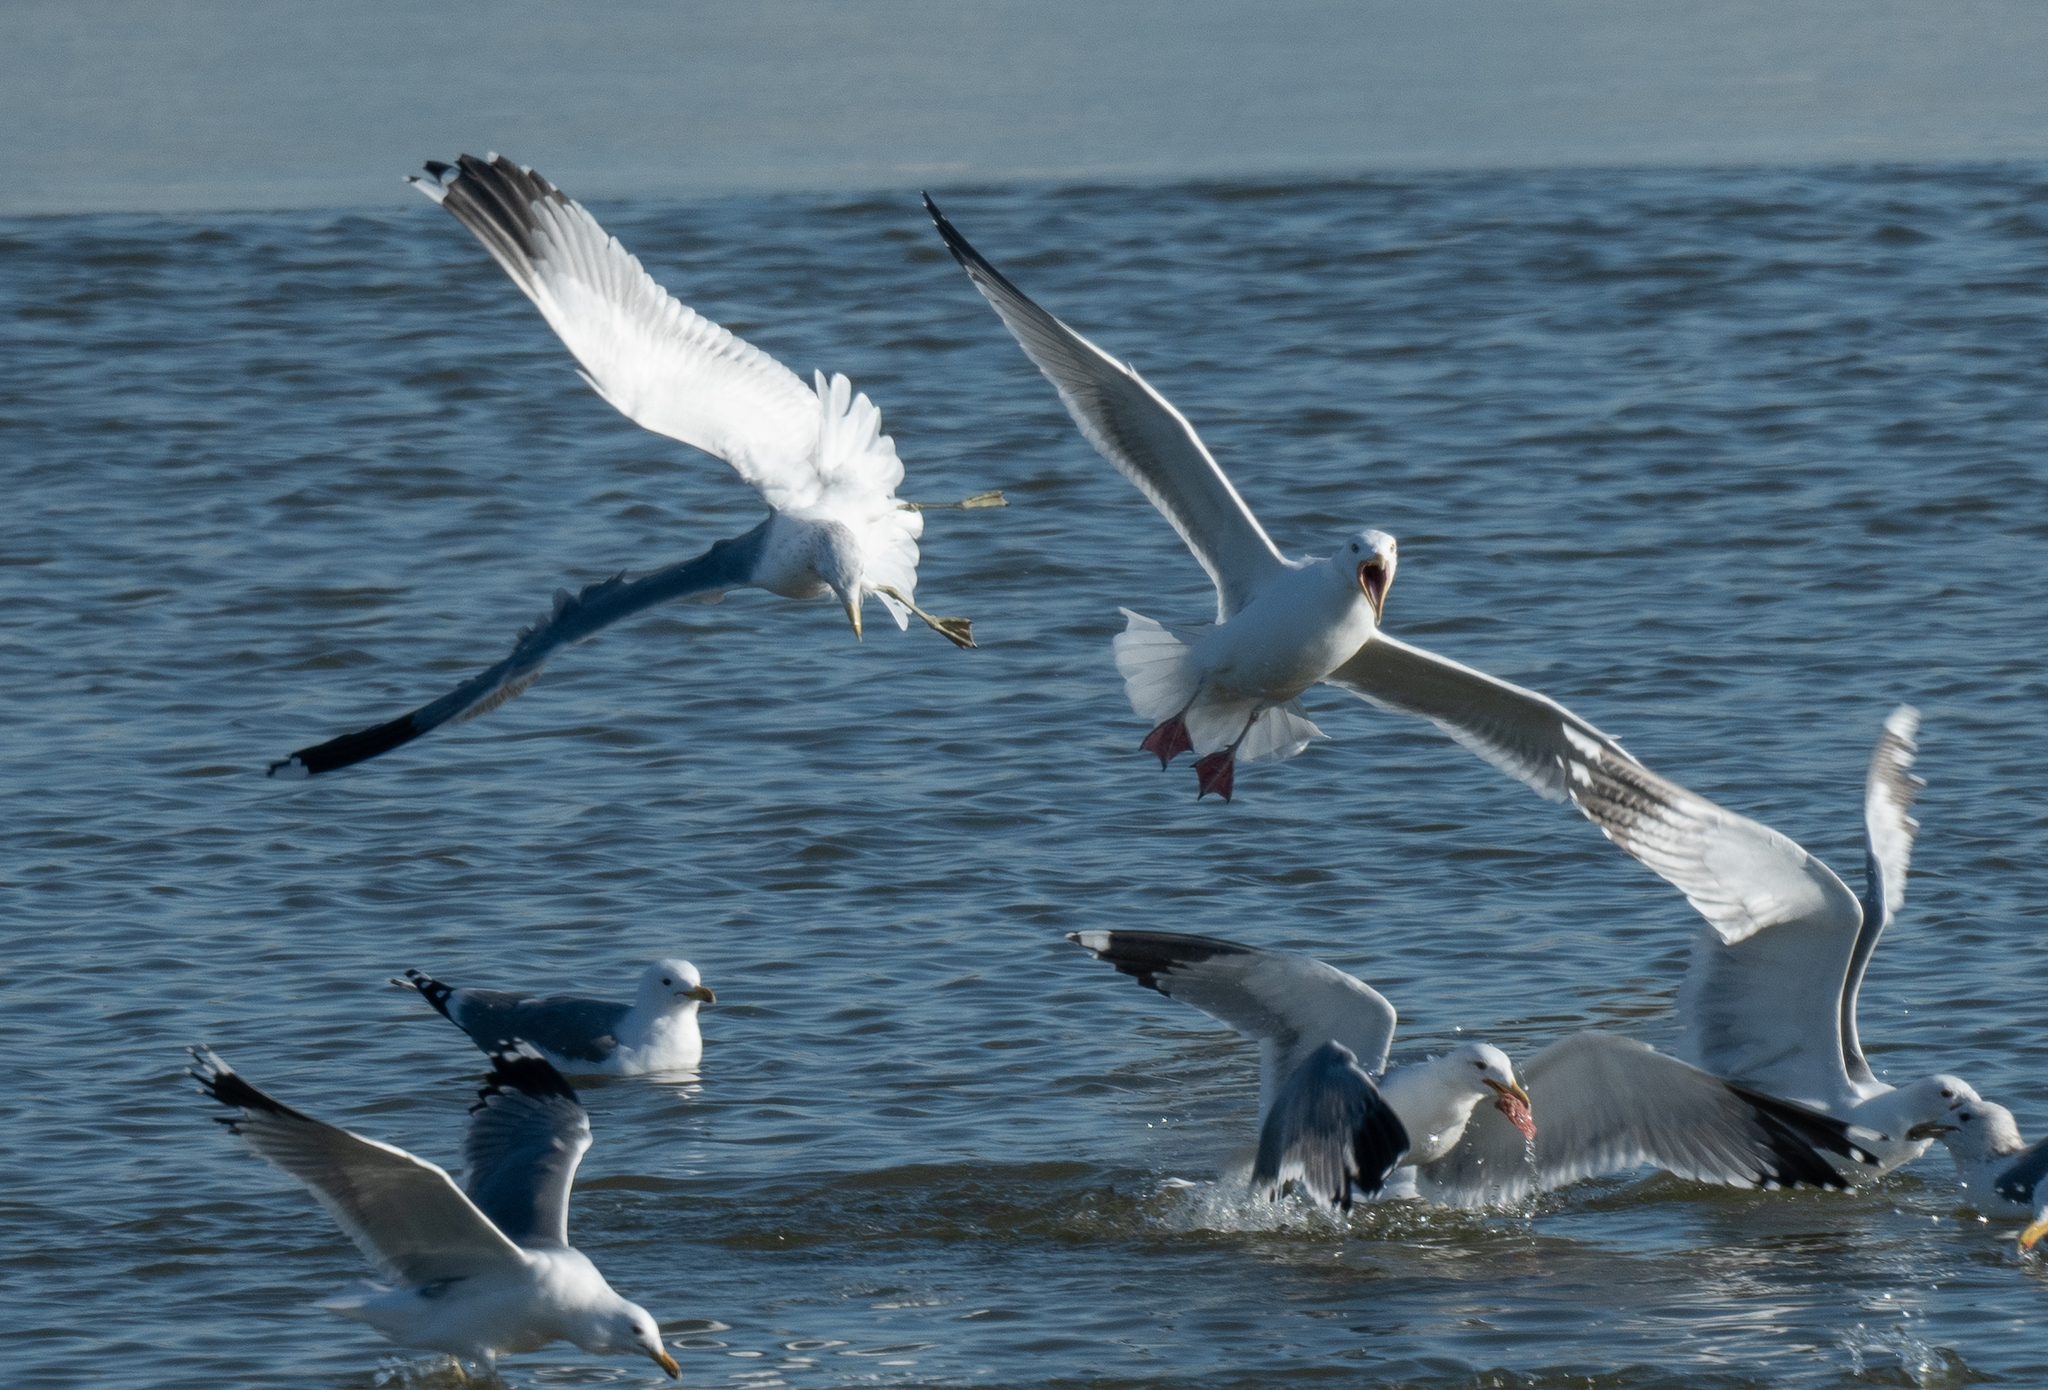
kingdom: Animalia
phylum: Chordata
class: Aves
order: Charadriiformes
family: Laridae
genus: Larus
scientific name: Larus argentatus
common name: Herring gull
